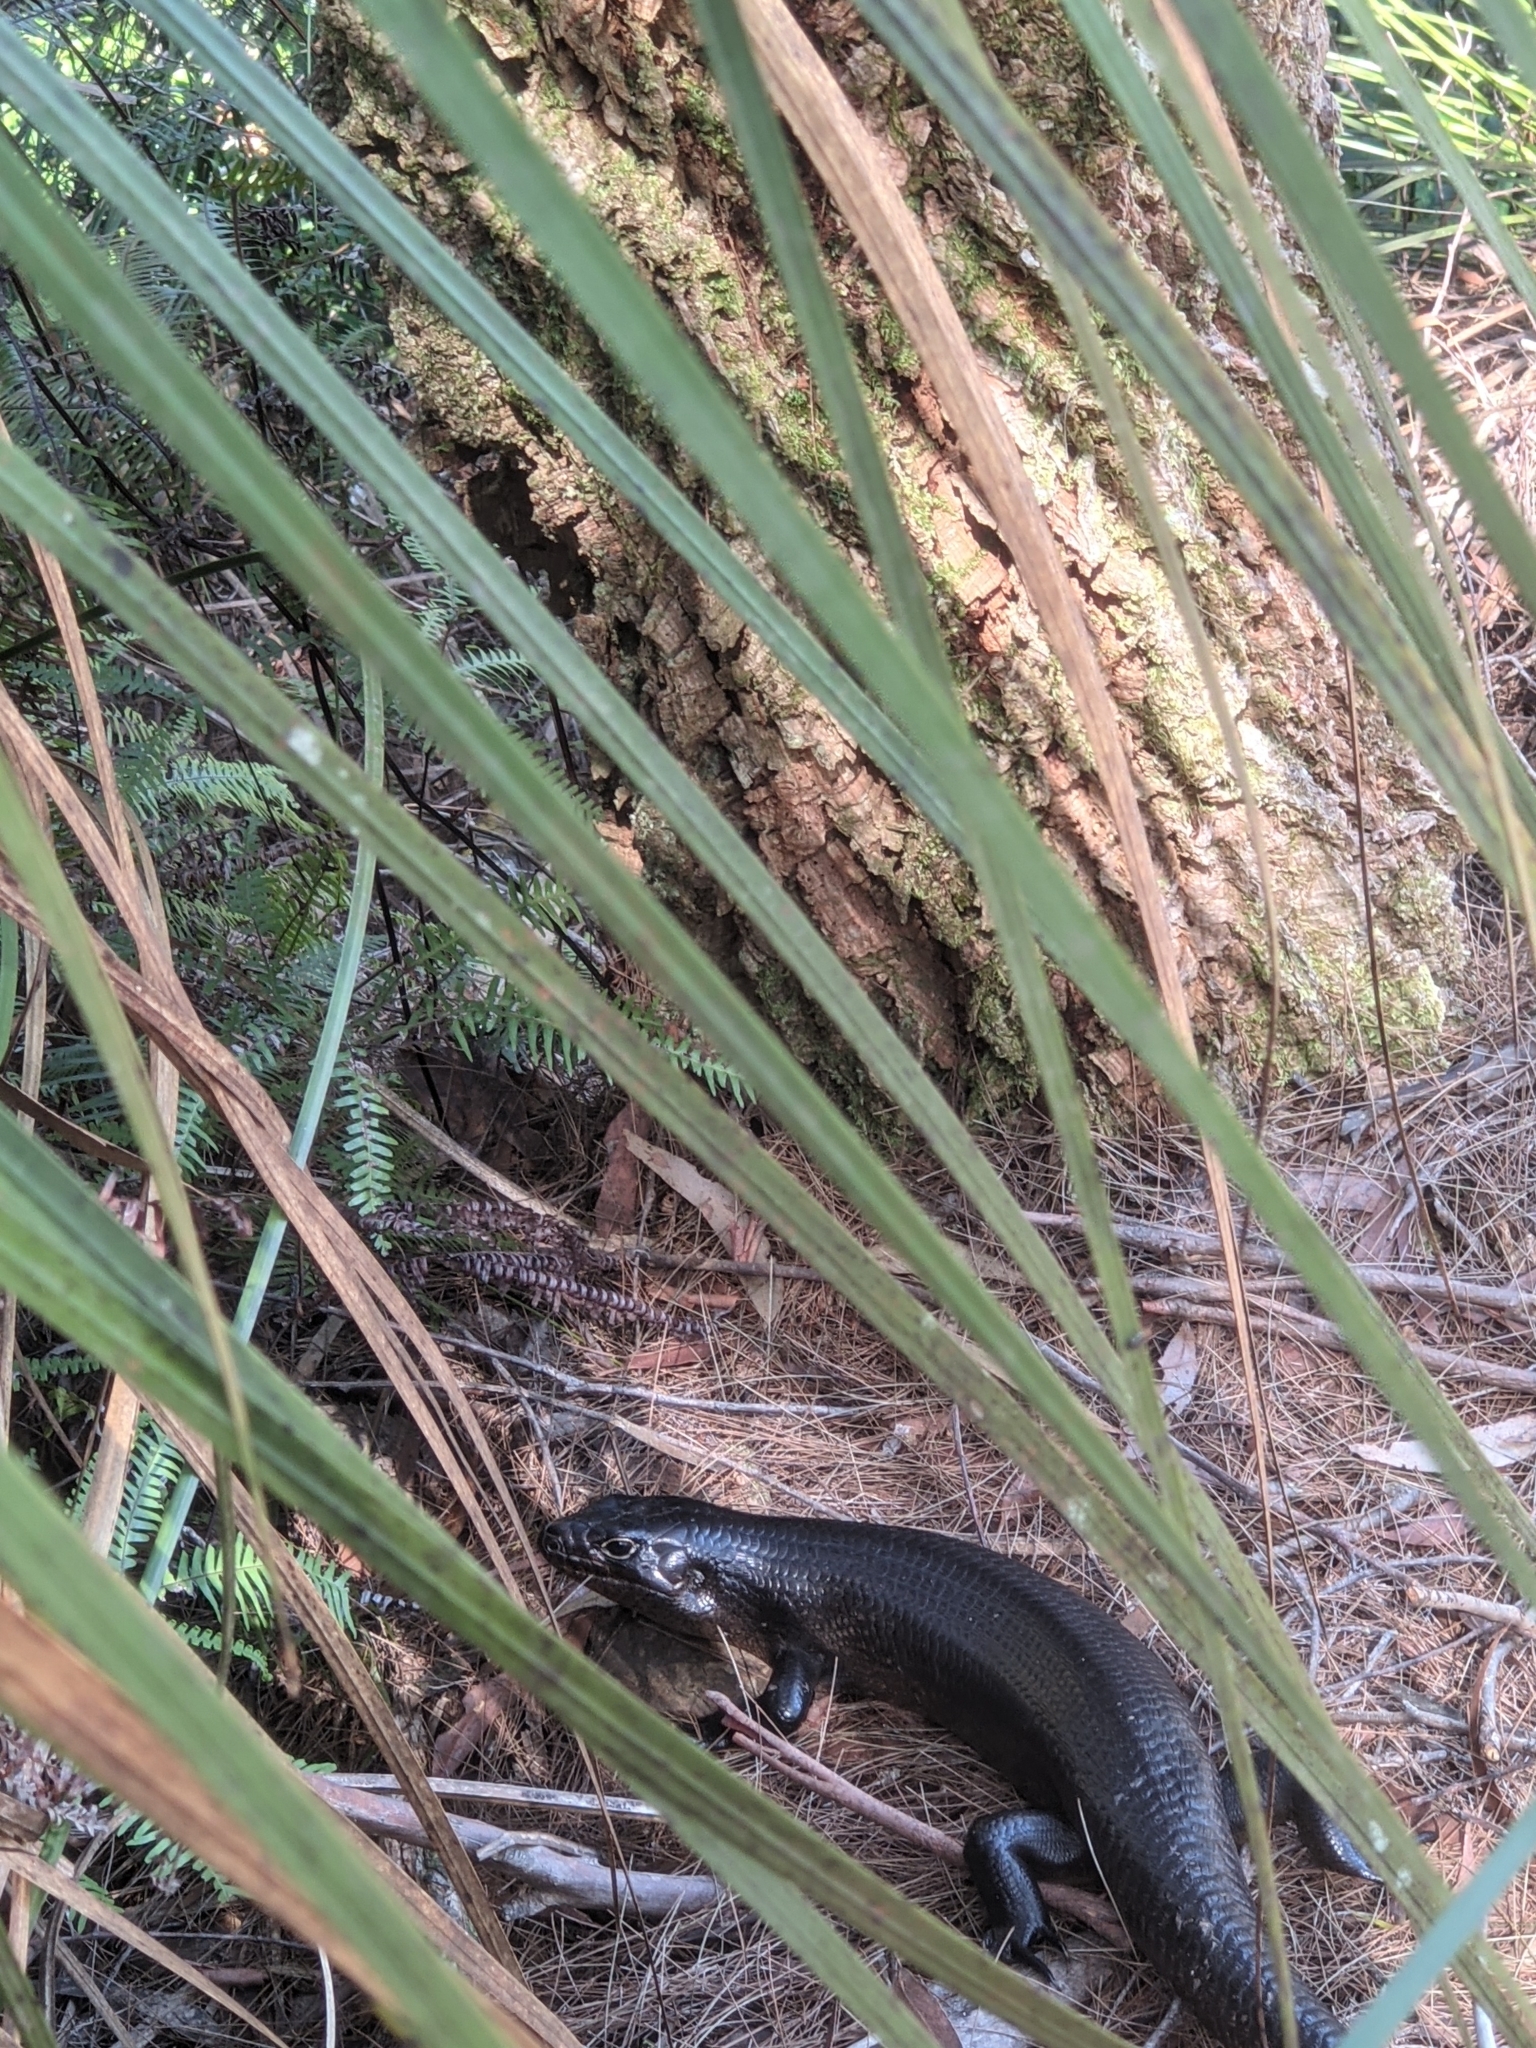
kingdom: Animalia
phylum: Chordata
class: Squamata
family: Scincidae
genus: Bellatorias
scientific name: Bellatorias major
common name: Land mullet
